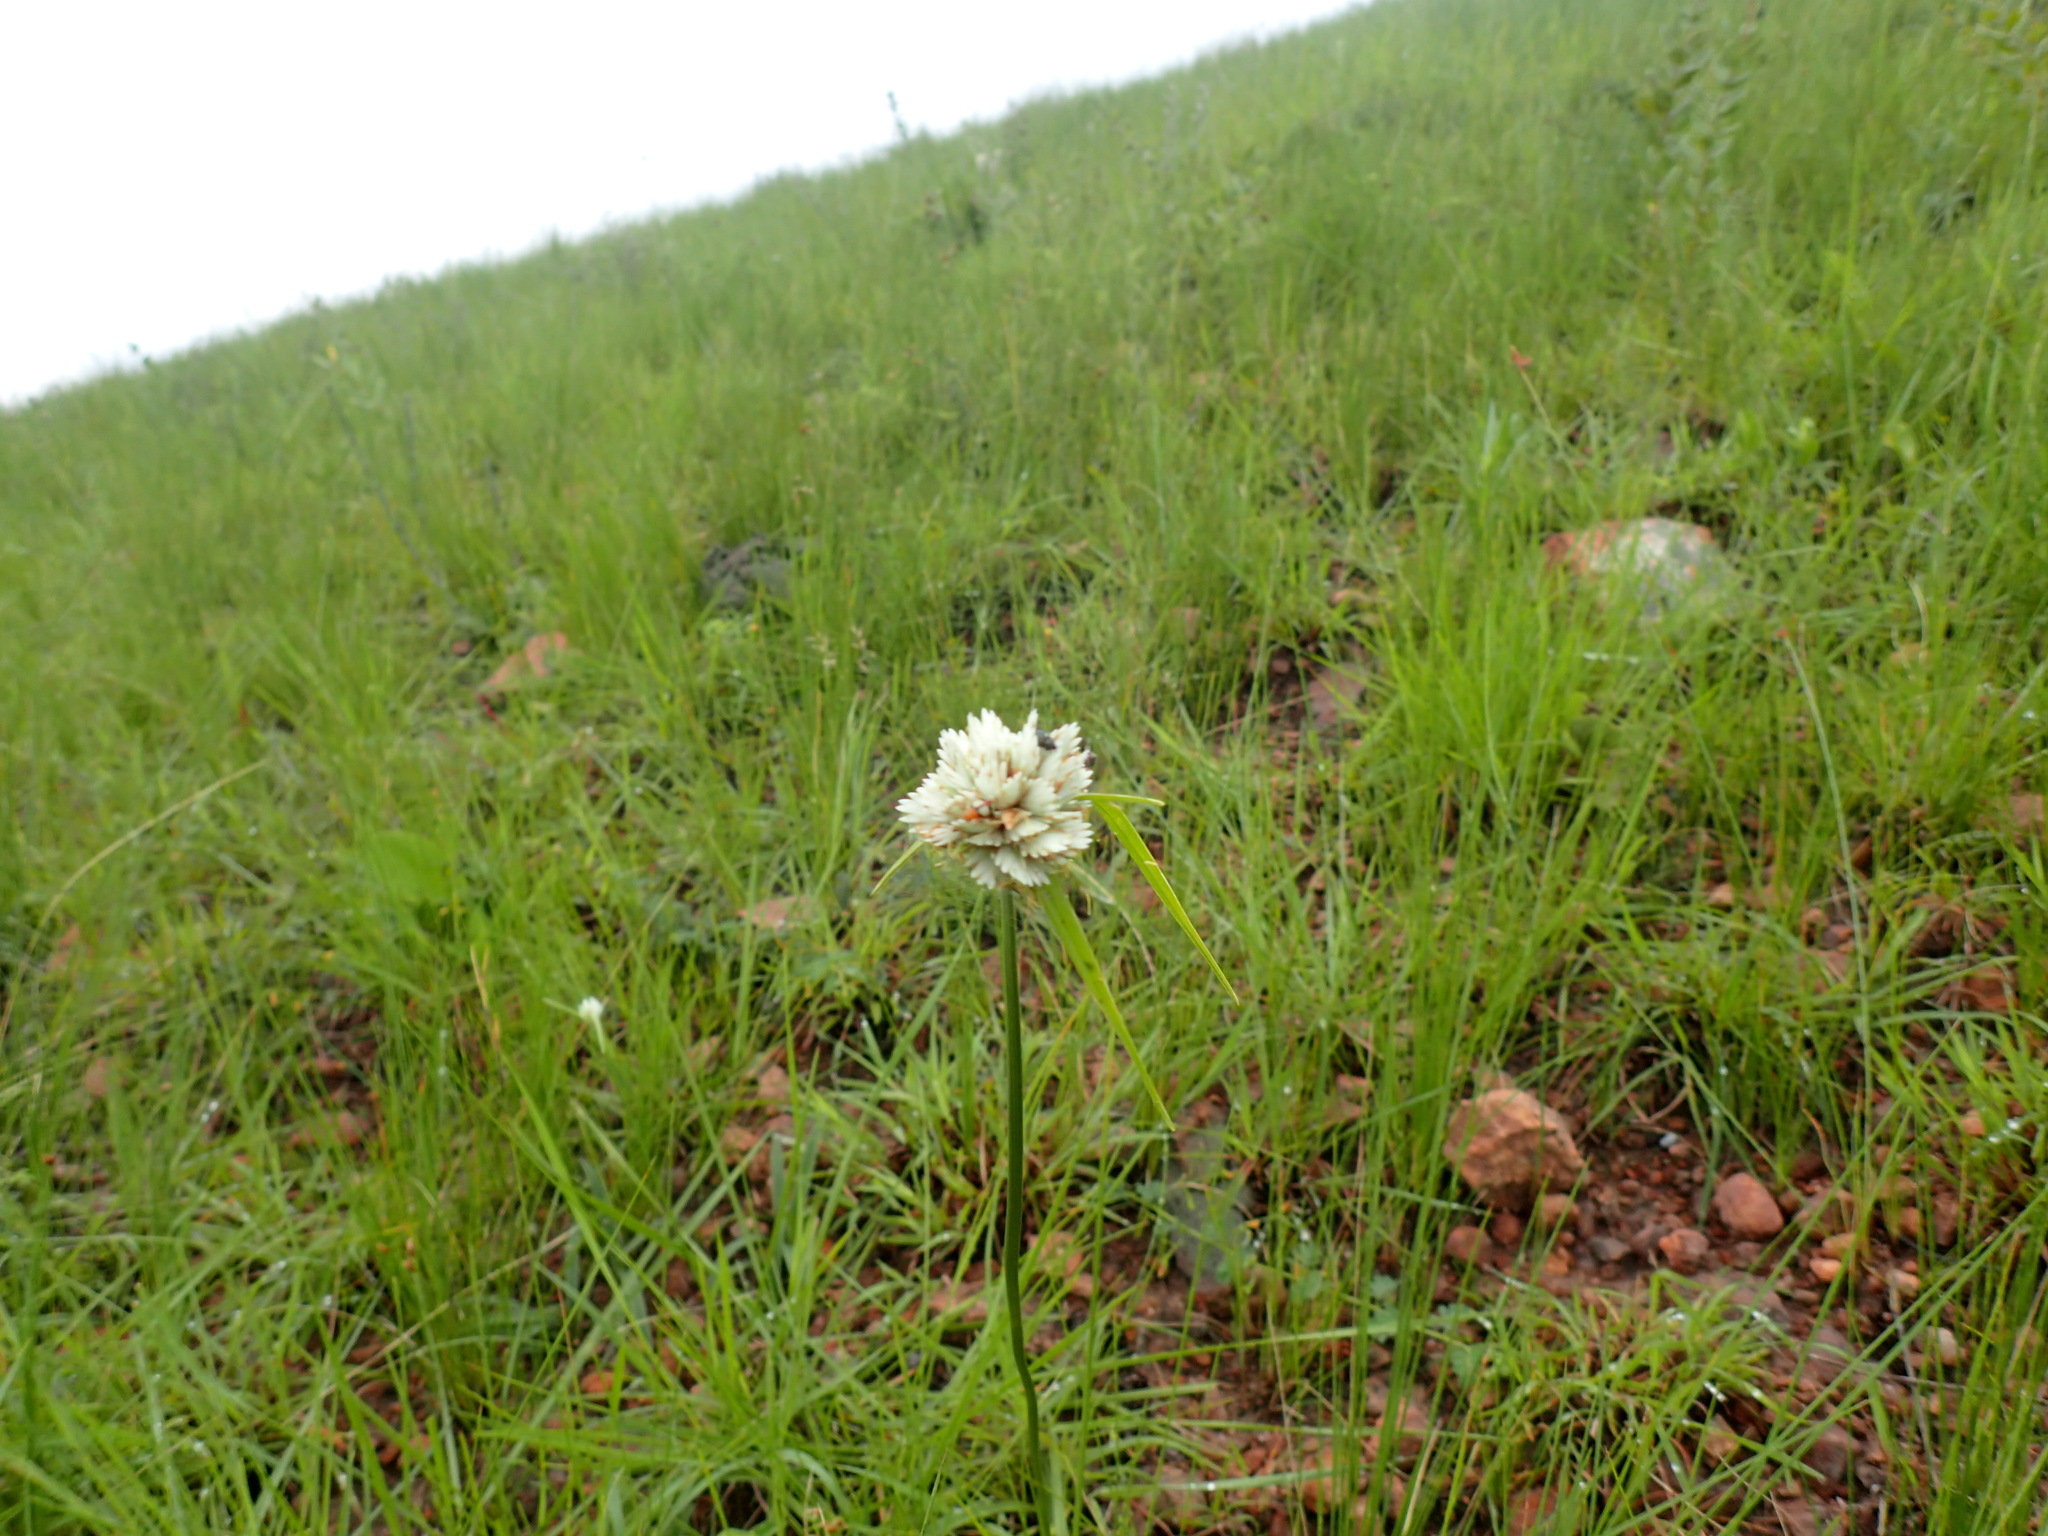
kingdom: Plantae
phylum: Tracheophyta
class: Liliopsida
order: Poales
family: Cyperaceae
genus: Cyperus
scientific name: Cyperus niveus
